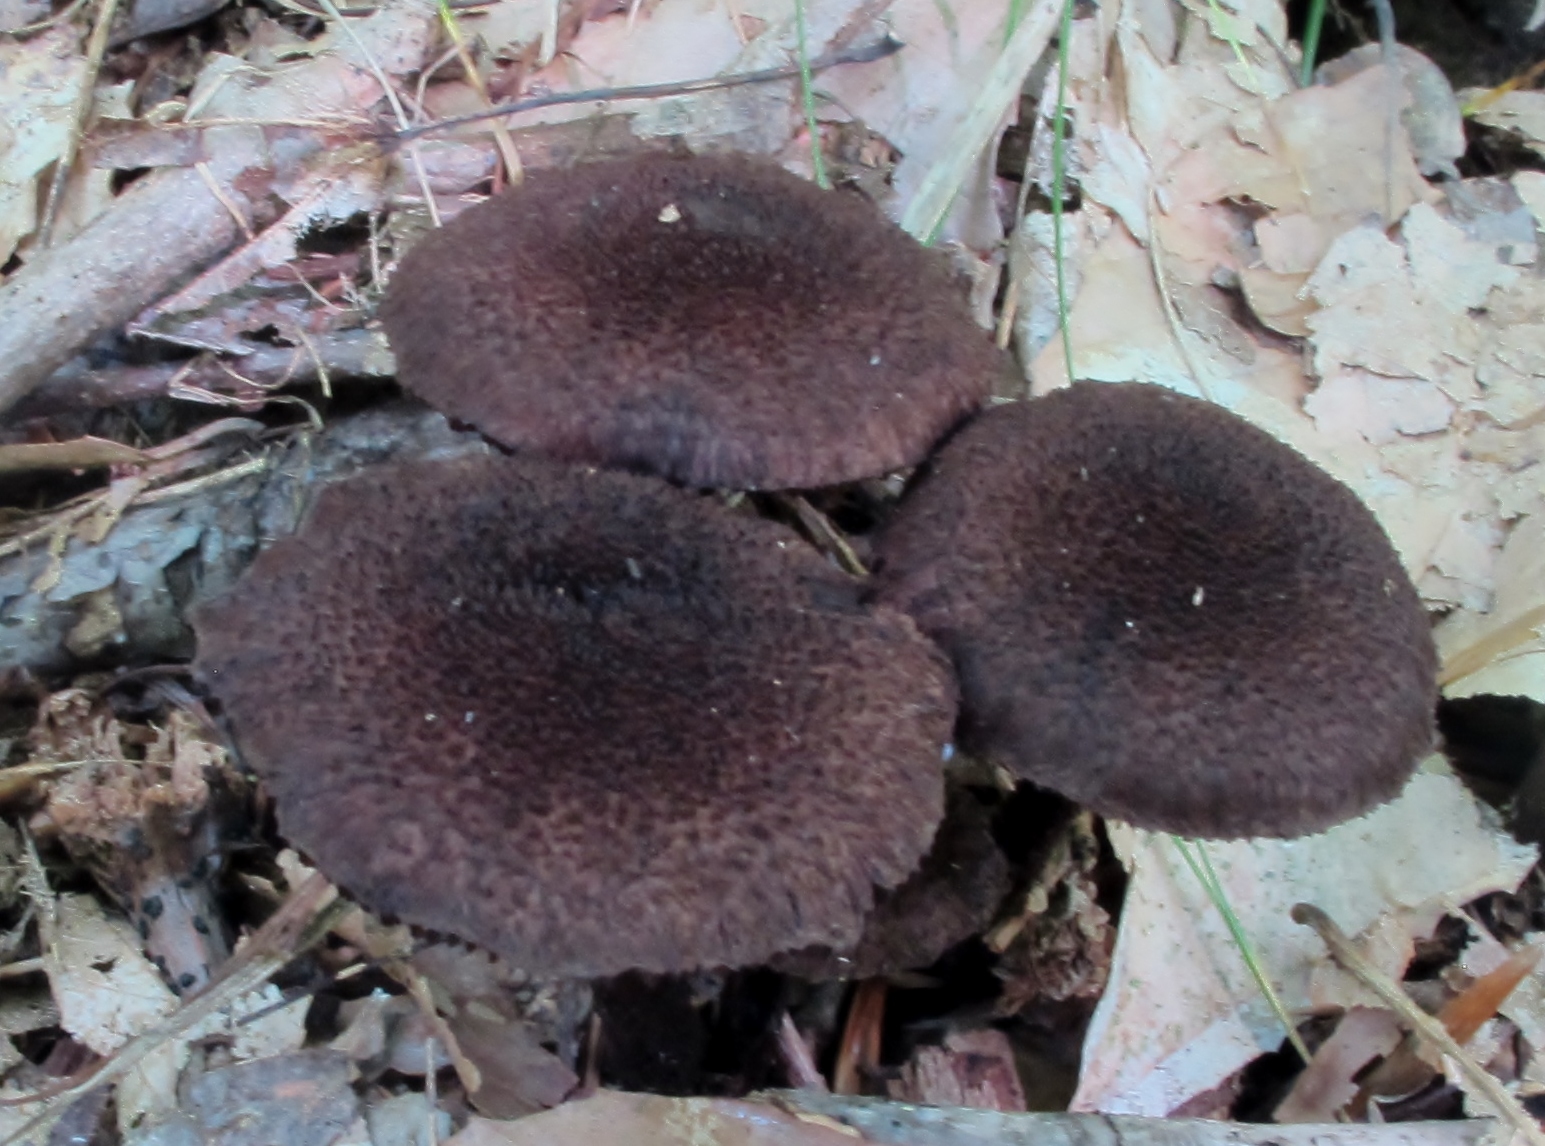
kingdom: Fungi
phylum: Basidiomycota
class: Agaricomycetes
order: Agaricales
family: Inocybaceae
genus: Inocybe
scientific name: Inocybe tahquamenonensis
